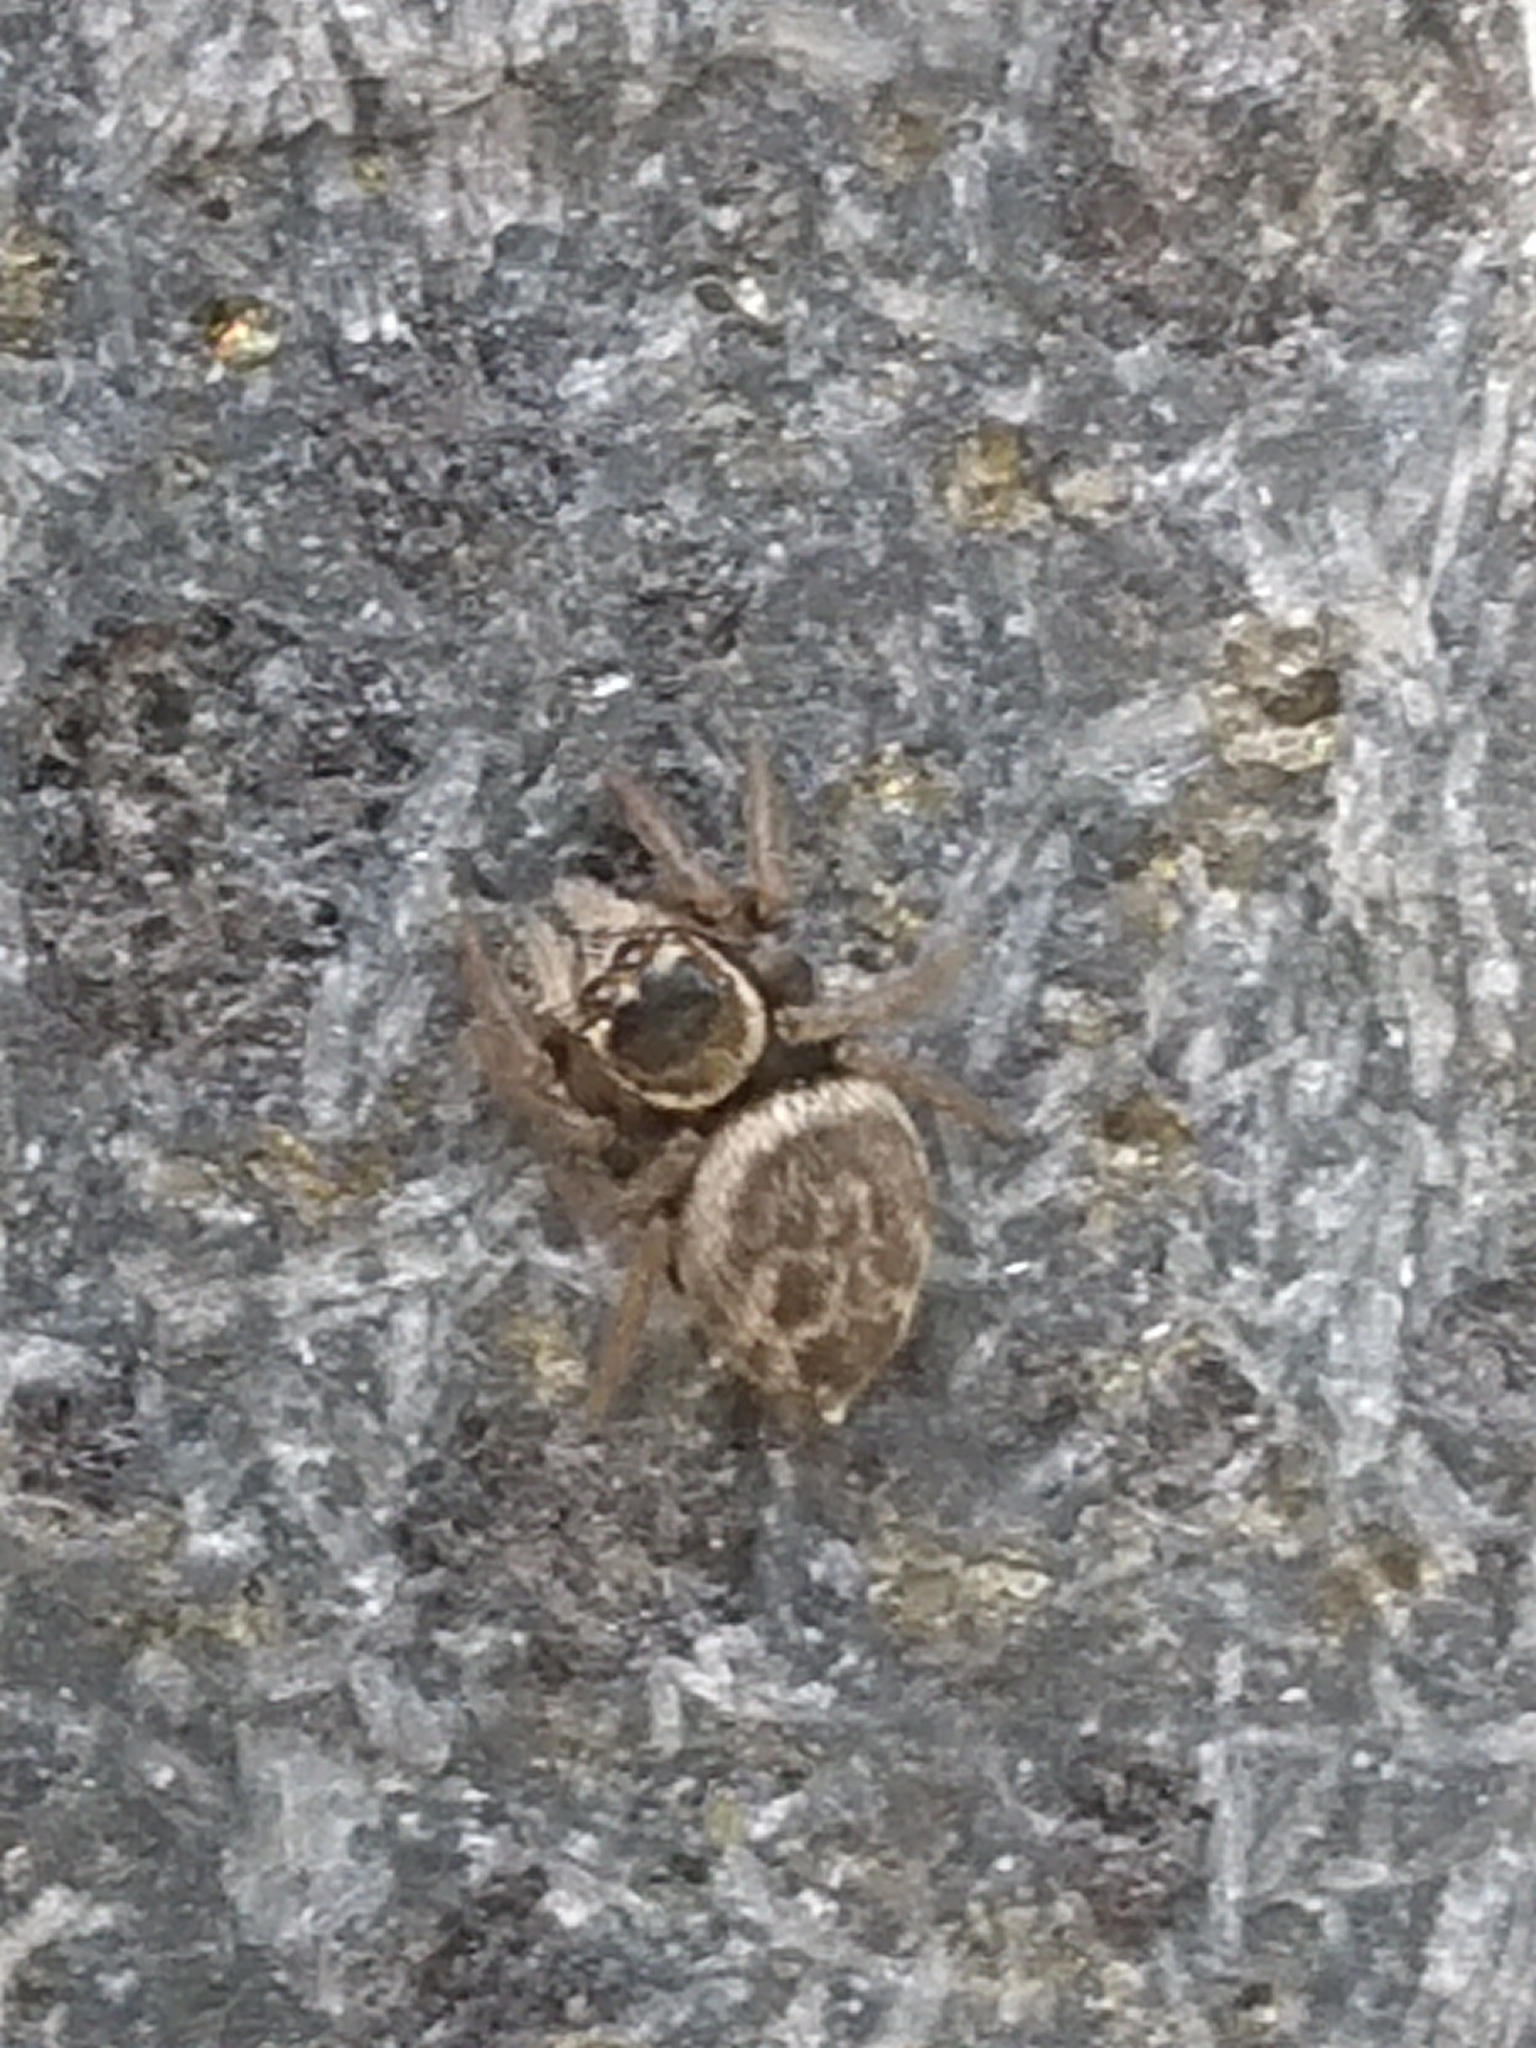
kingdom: Animalia
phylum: Arthropoda
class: Arachnida
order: Araneae
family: Salticidae
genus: Maratus
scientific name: Maratus griseus
